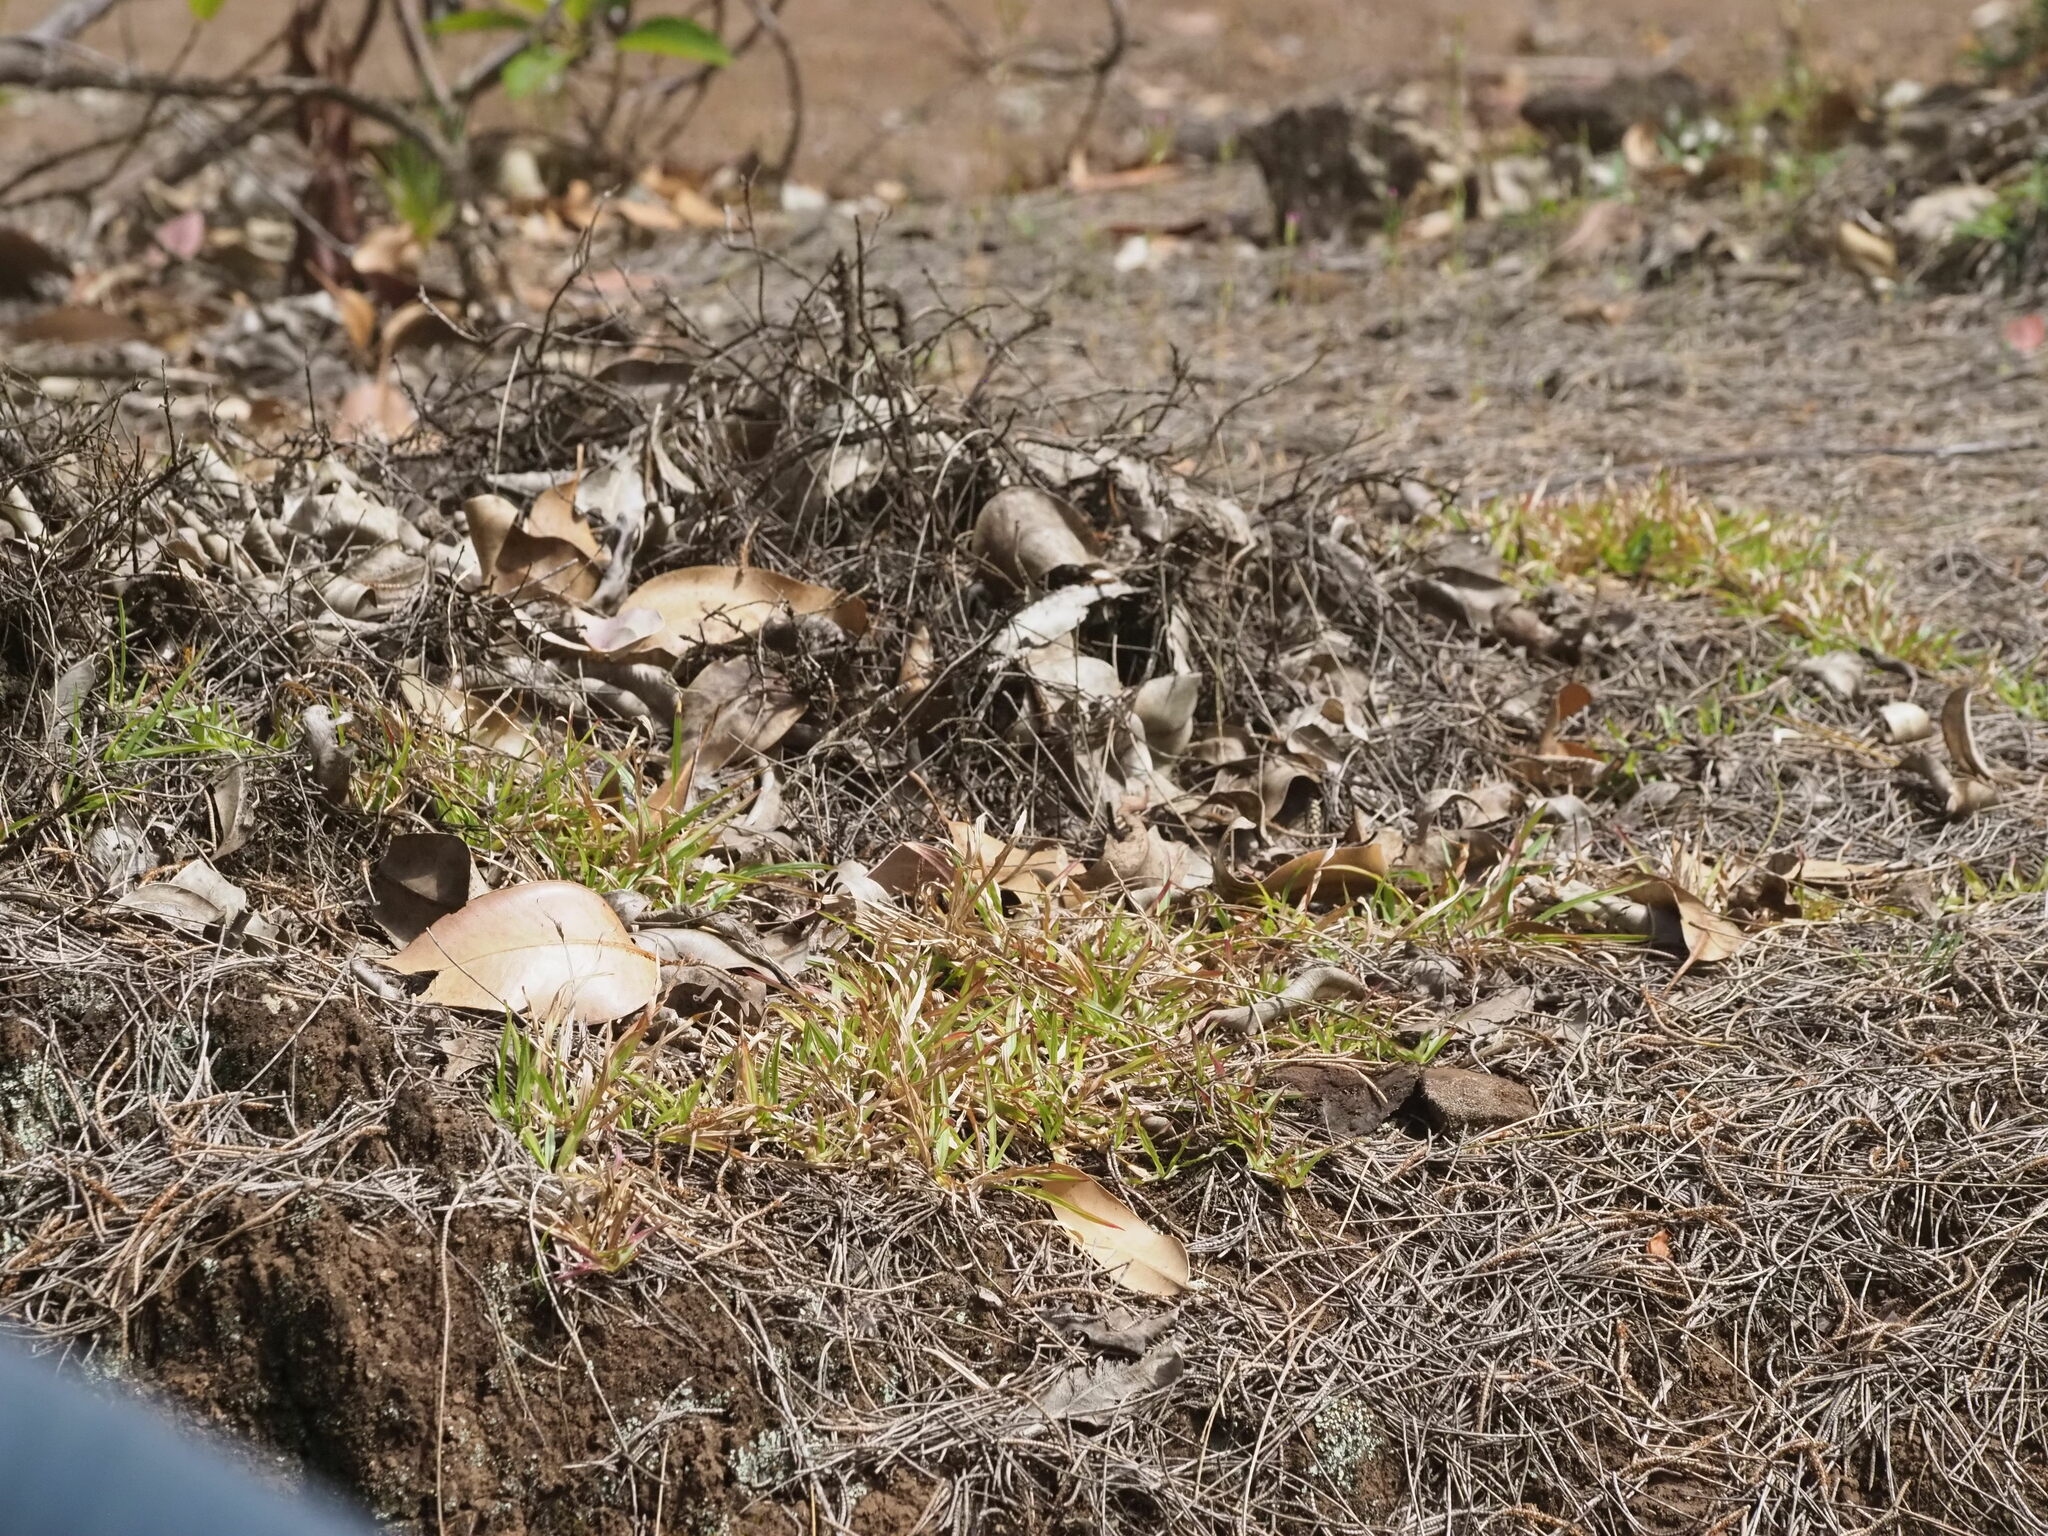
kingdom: Plantae
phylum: Tracheophyta
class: Liliopsida
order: Poales
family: Poaceae
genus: Chrysopogon
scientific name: Chrysopogon aciculatus
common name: Pilipiliula
